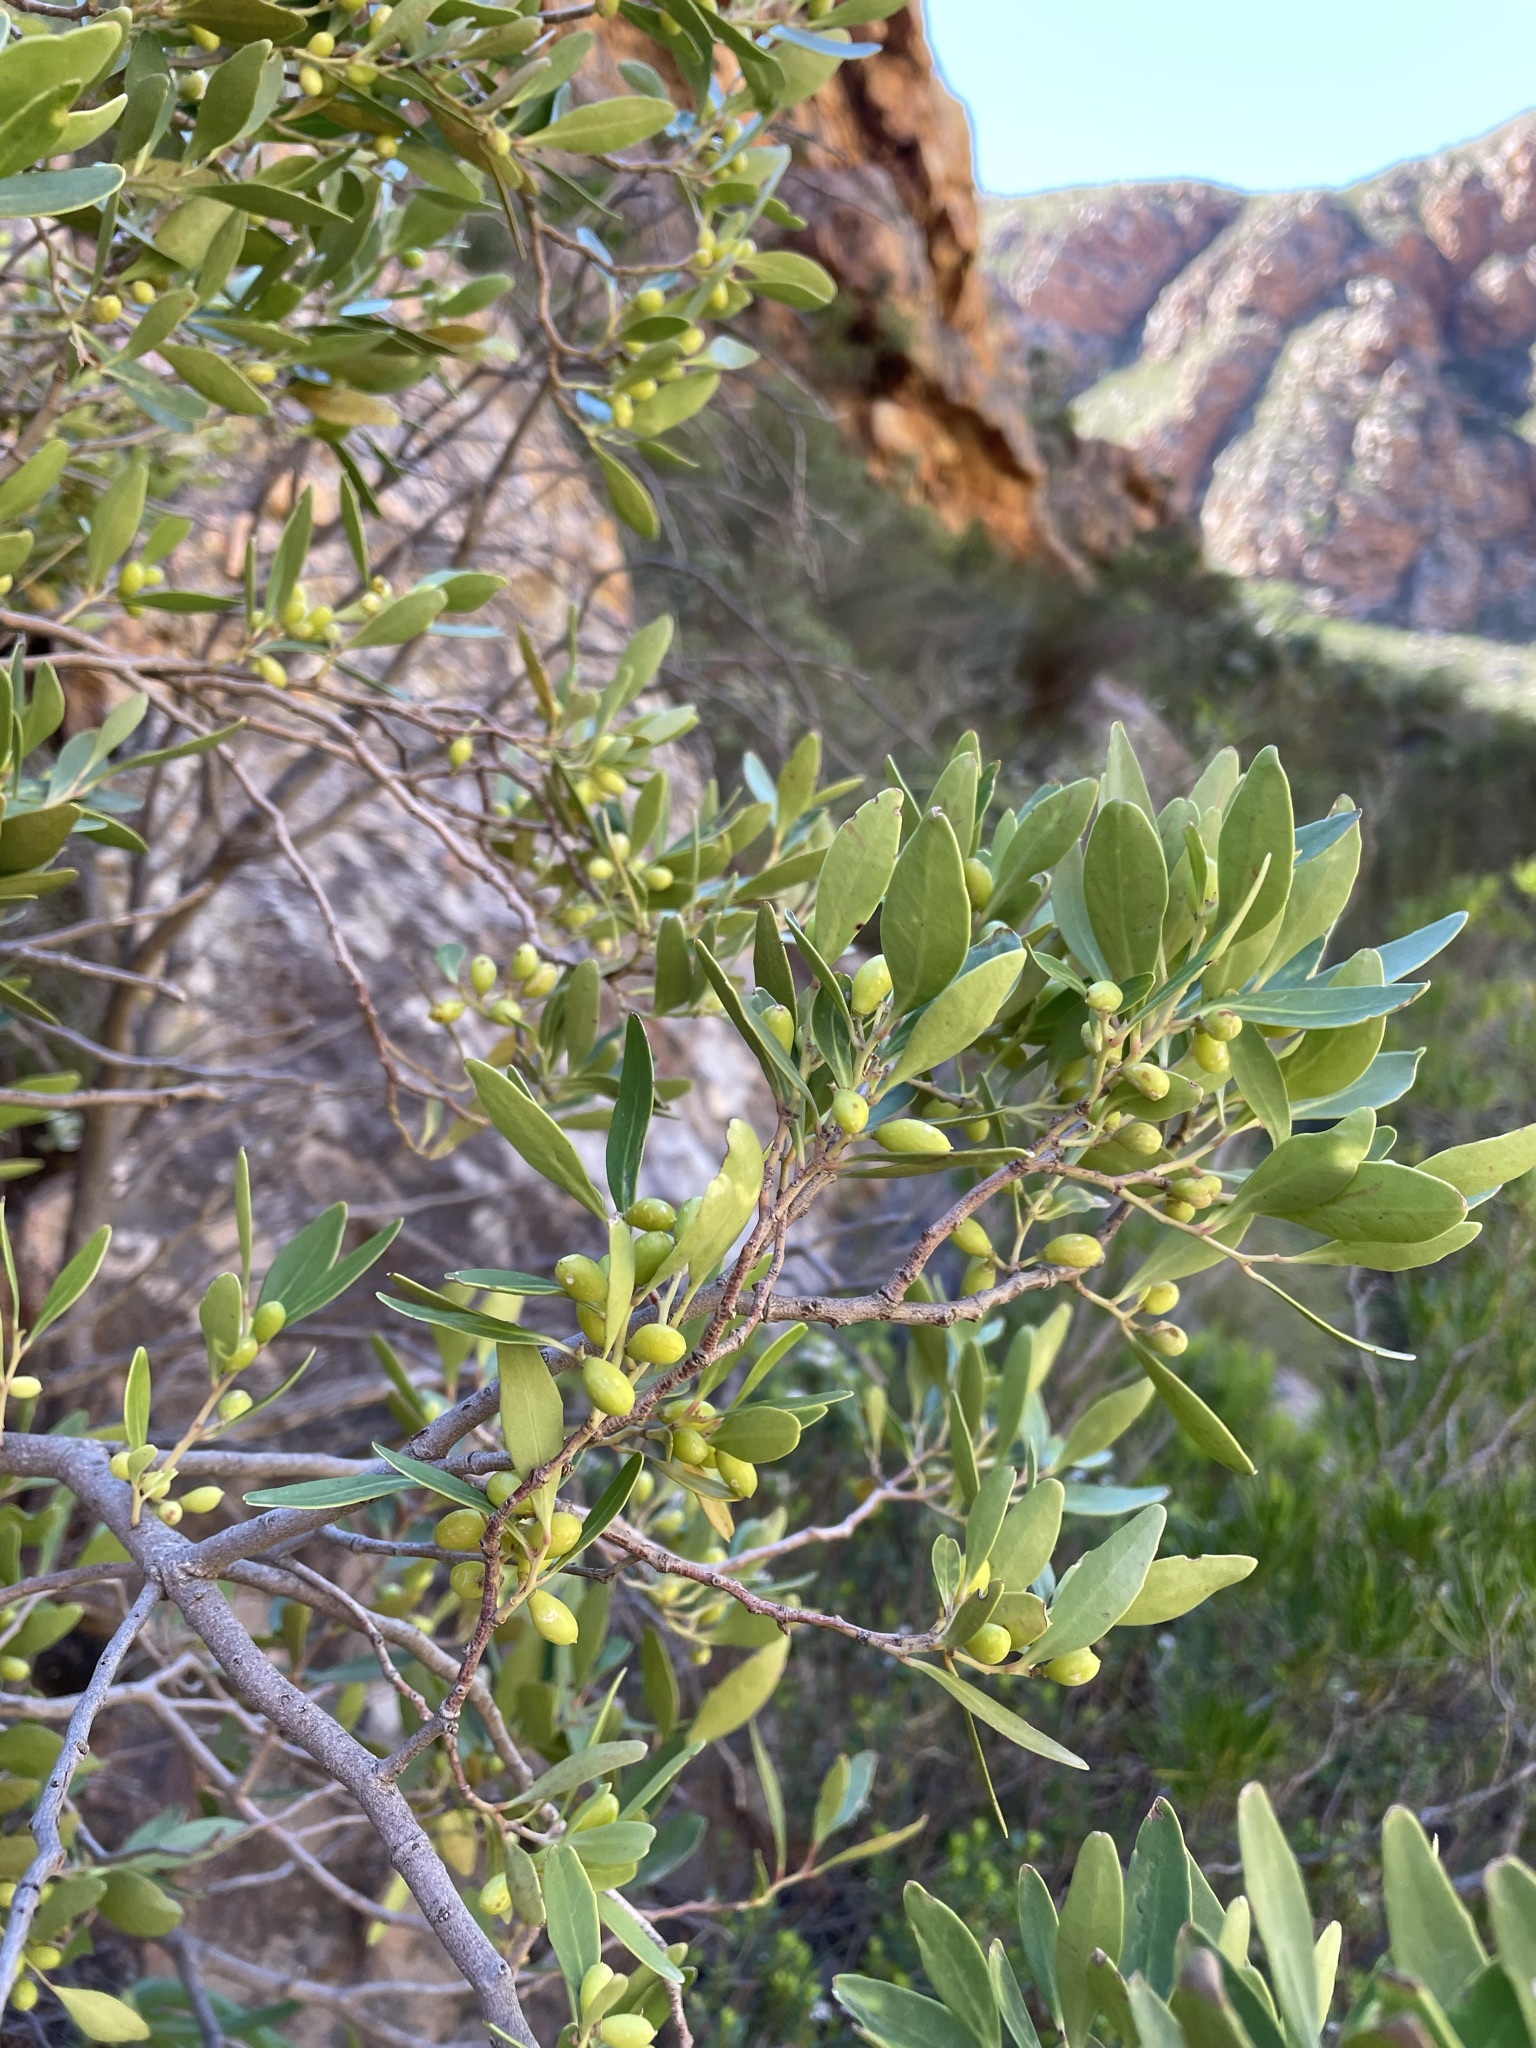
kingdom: Plantae
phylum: Tracheophyta
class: Magnoliopsida
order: Celastrales
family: Celastraceae
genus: Gymnosporia
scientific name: Gymnosporia laurina
